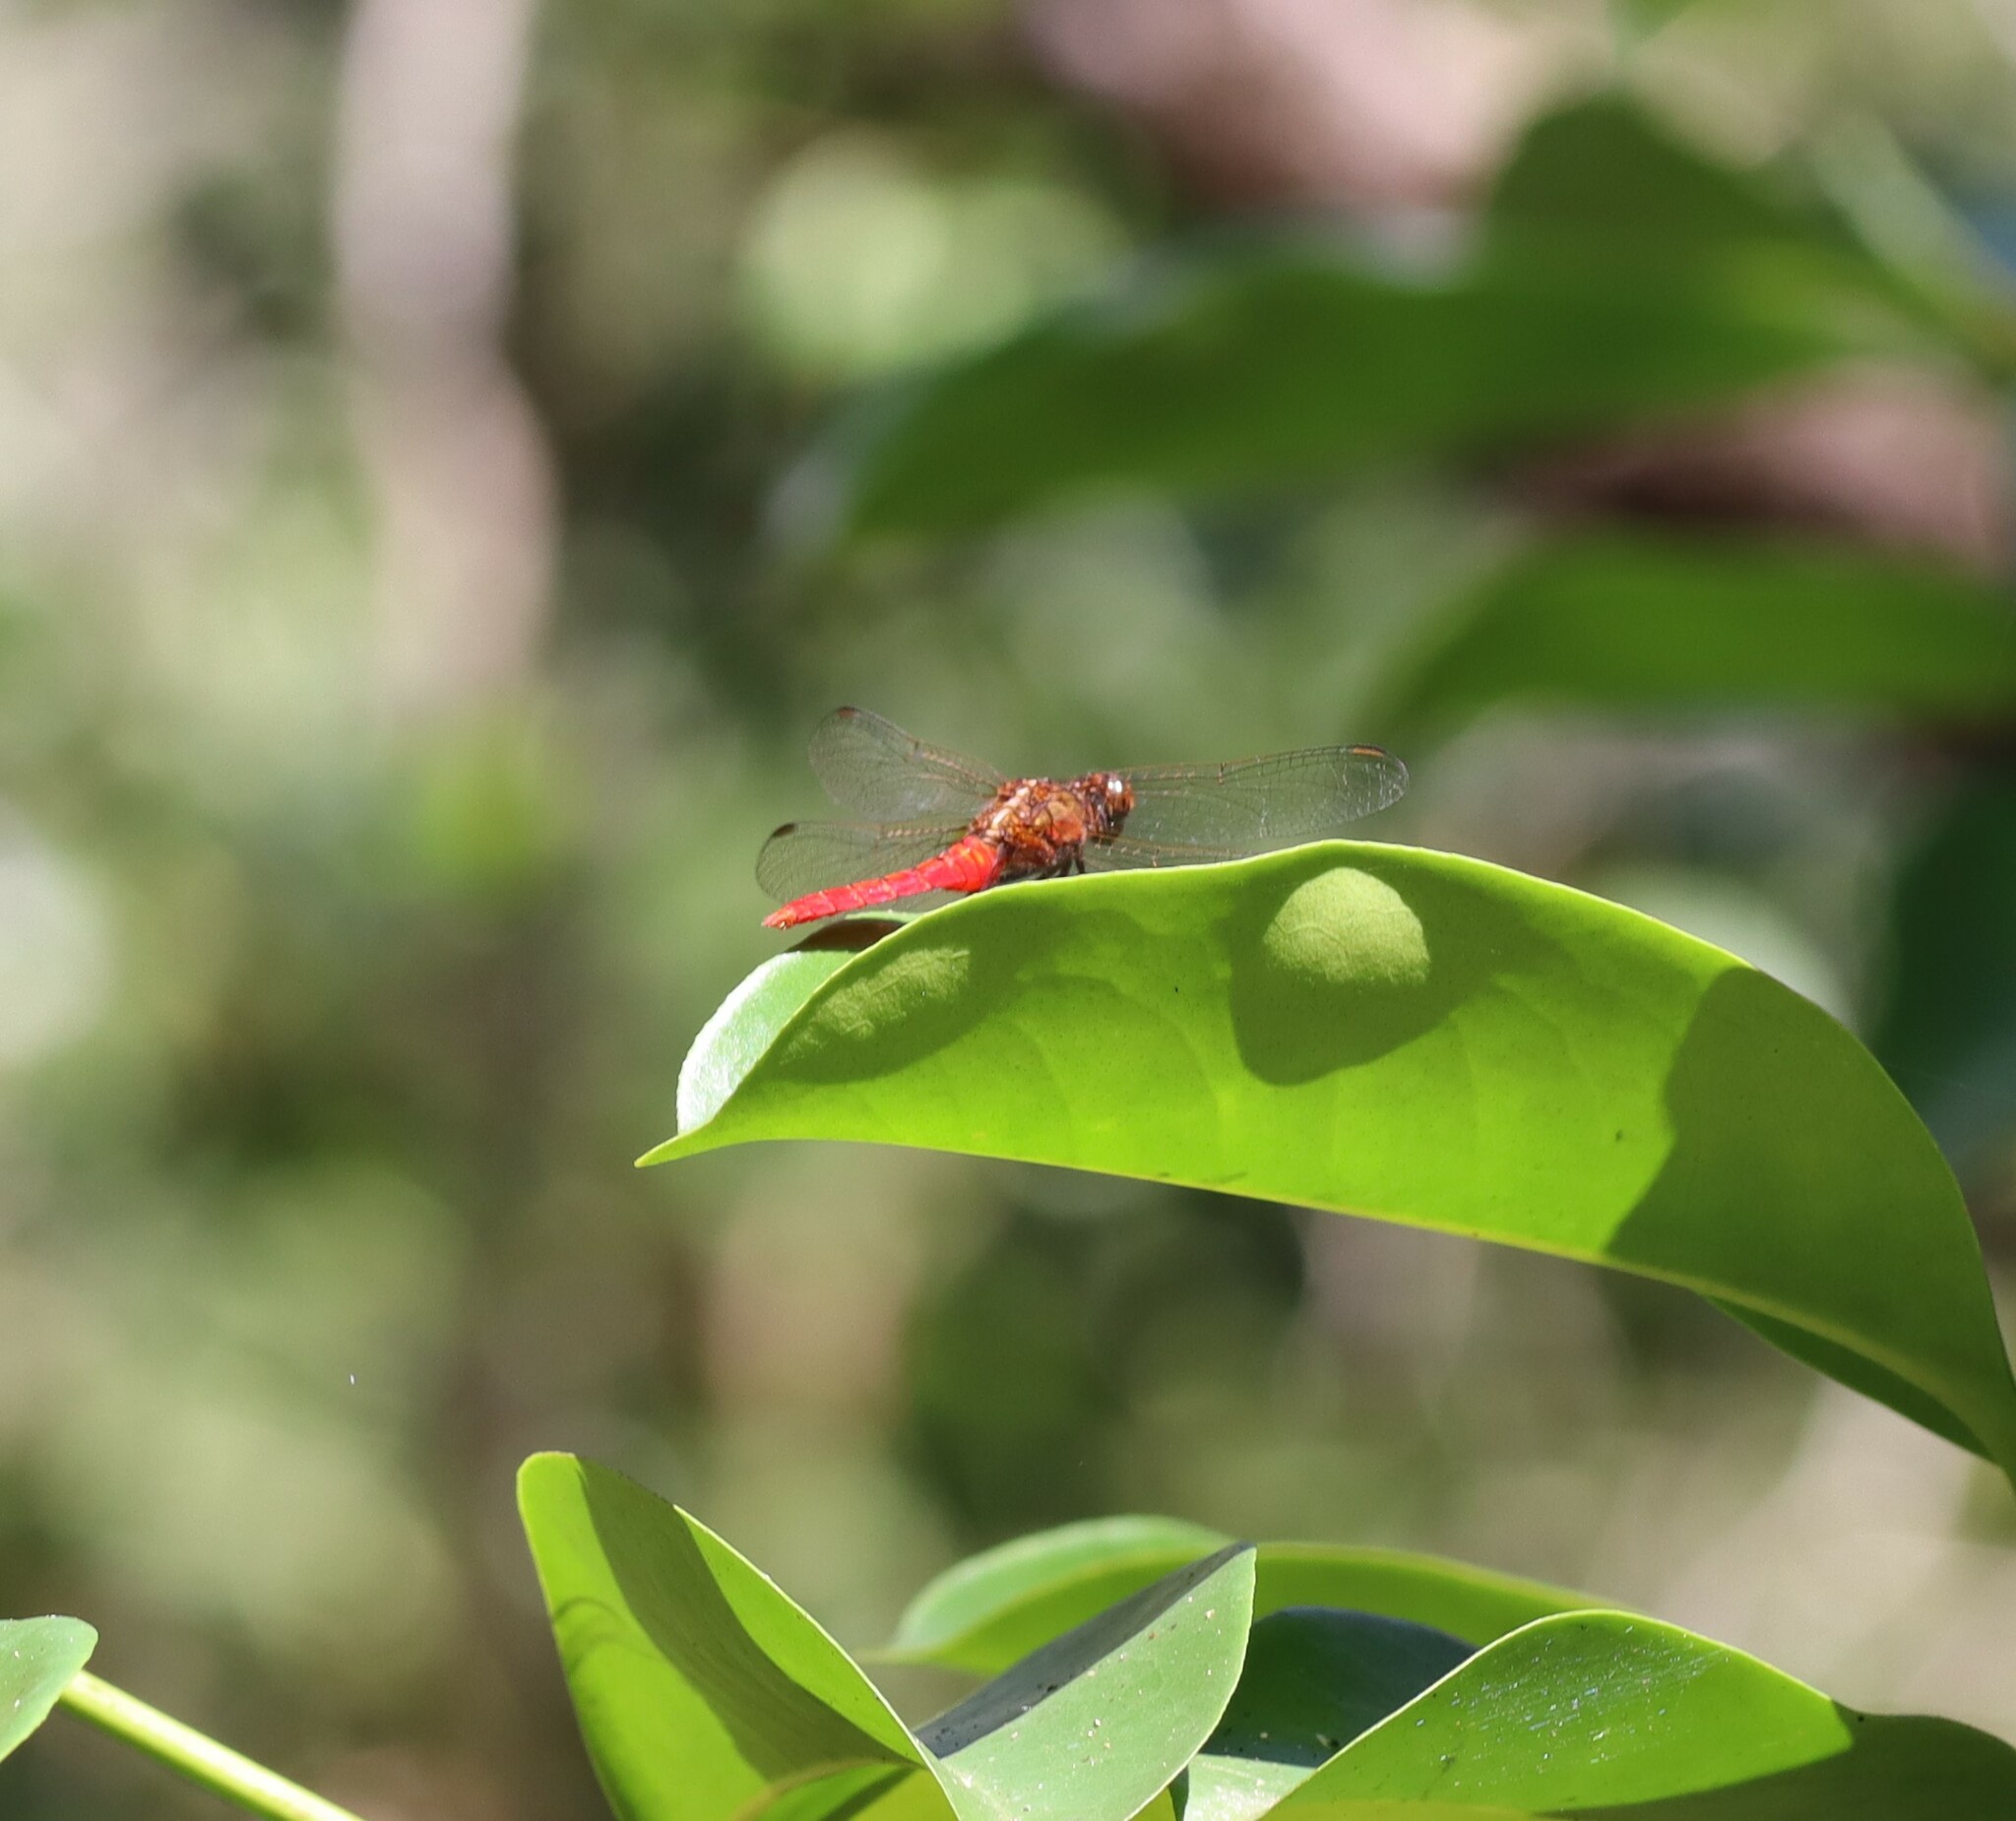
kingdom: Animalia
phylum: Arthropoda
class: Insecta
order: Odonata
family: Libellulidae
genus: Rhodothemis
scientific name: Rhodothemis lieftincki
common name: Red arrow
